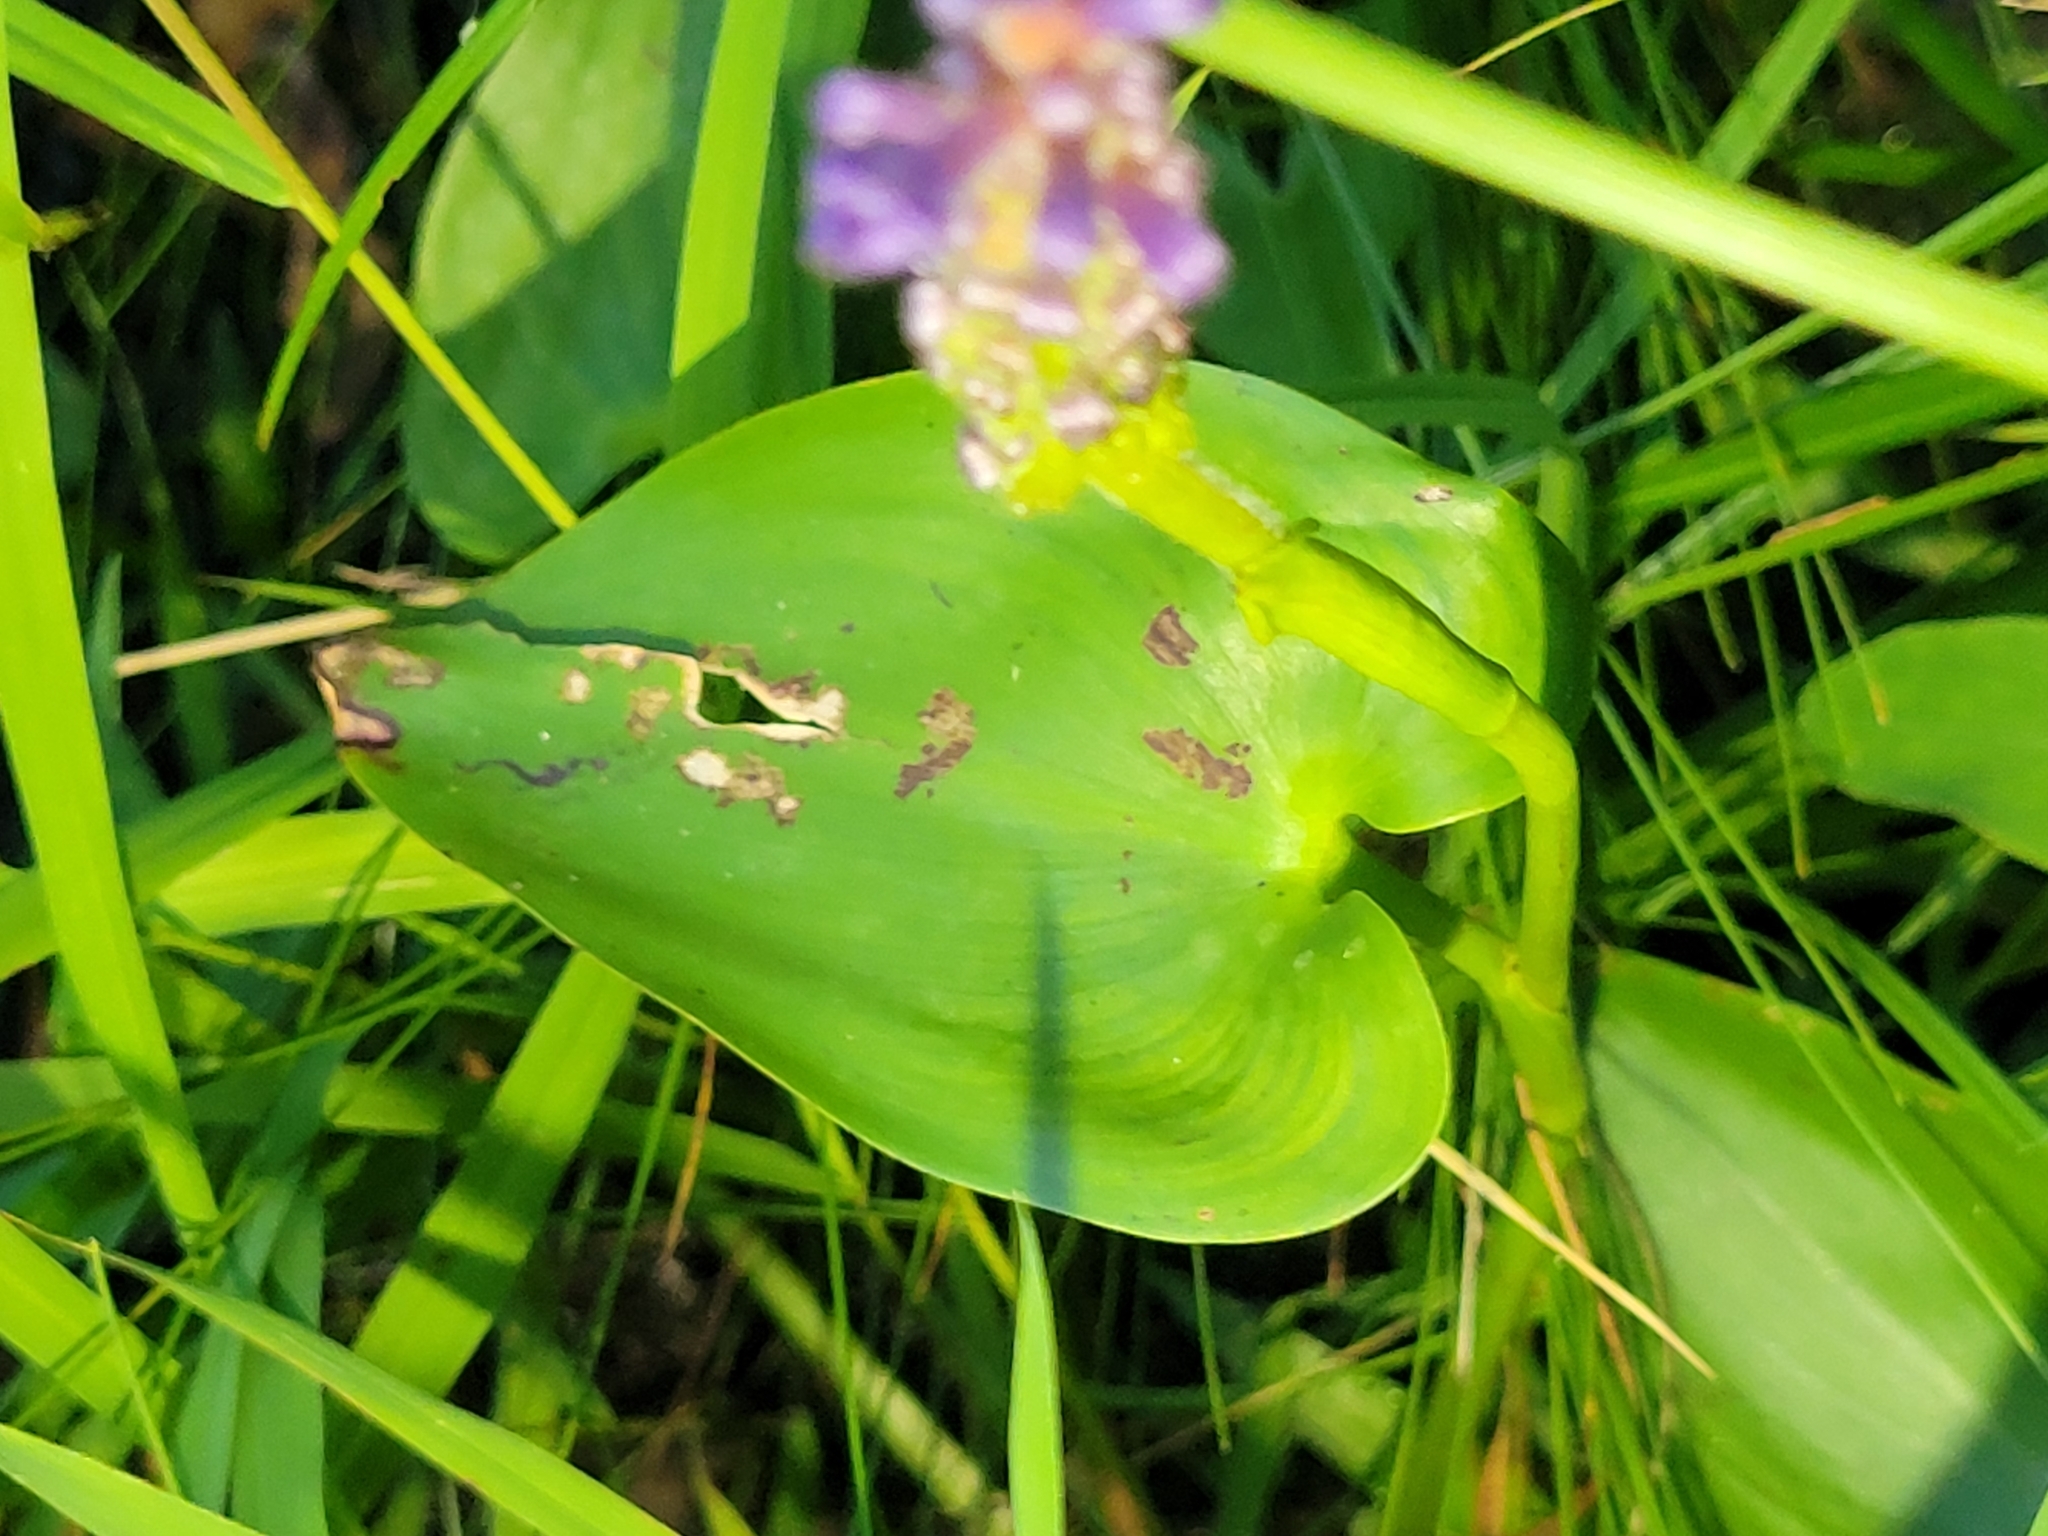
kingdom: Plantae
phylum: Tracheophyta
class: Liliopsida
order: Commelinales
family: Pontederiaceae
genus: Pontederia
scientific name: Pontederia cordata
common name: Pickerelweed
